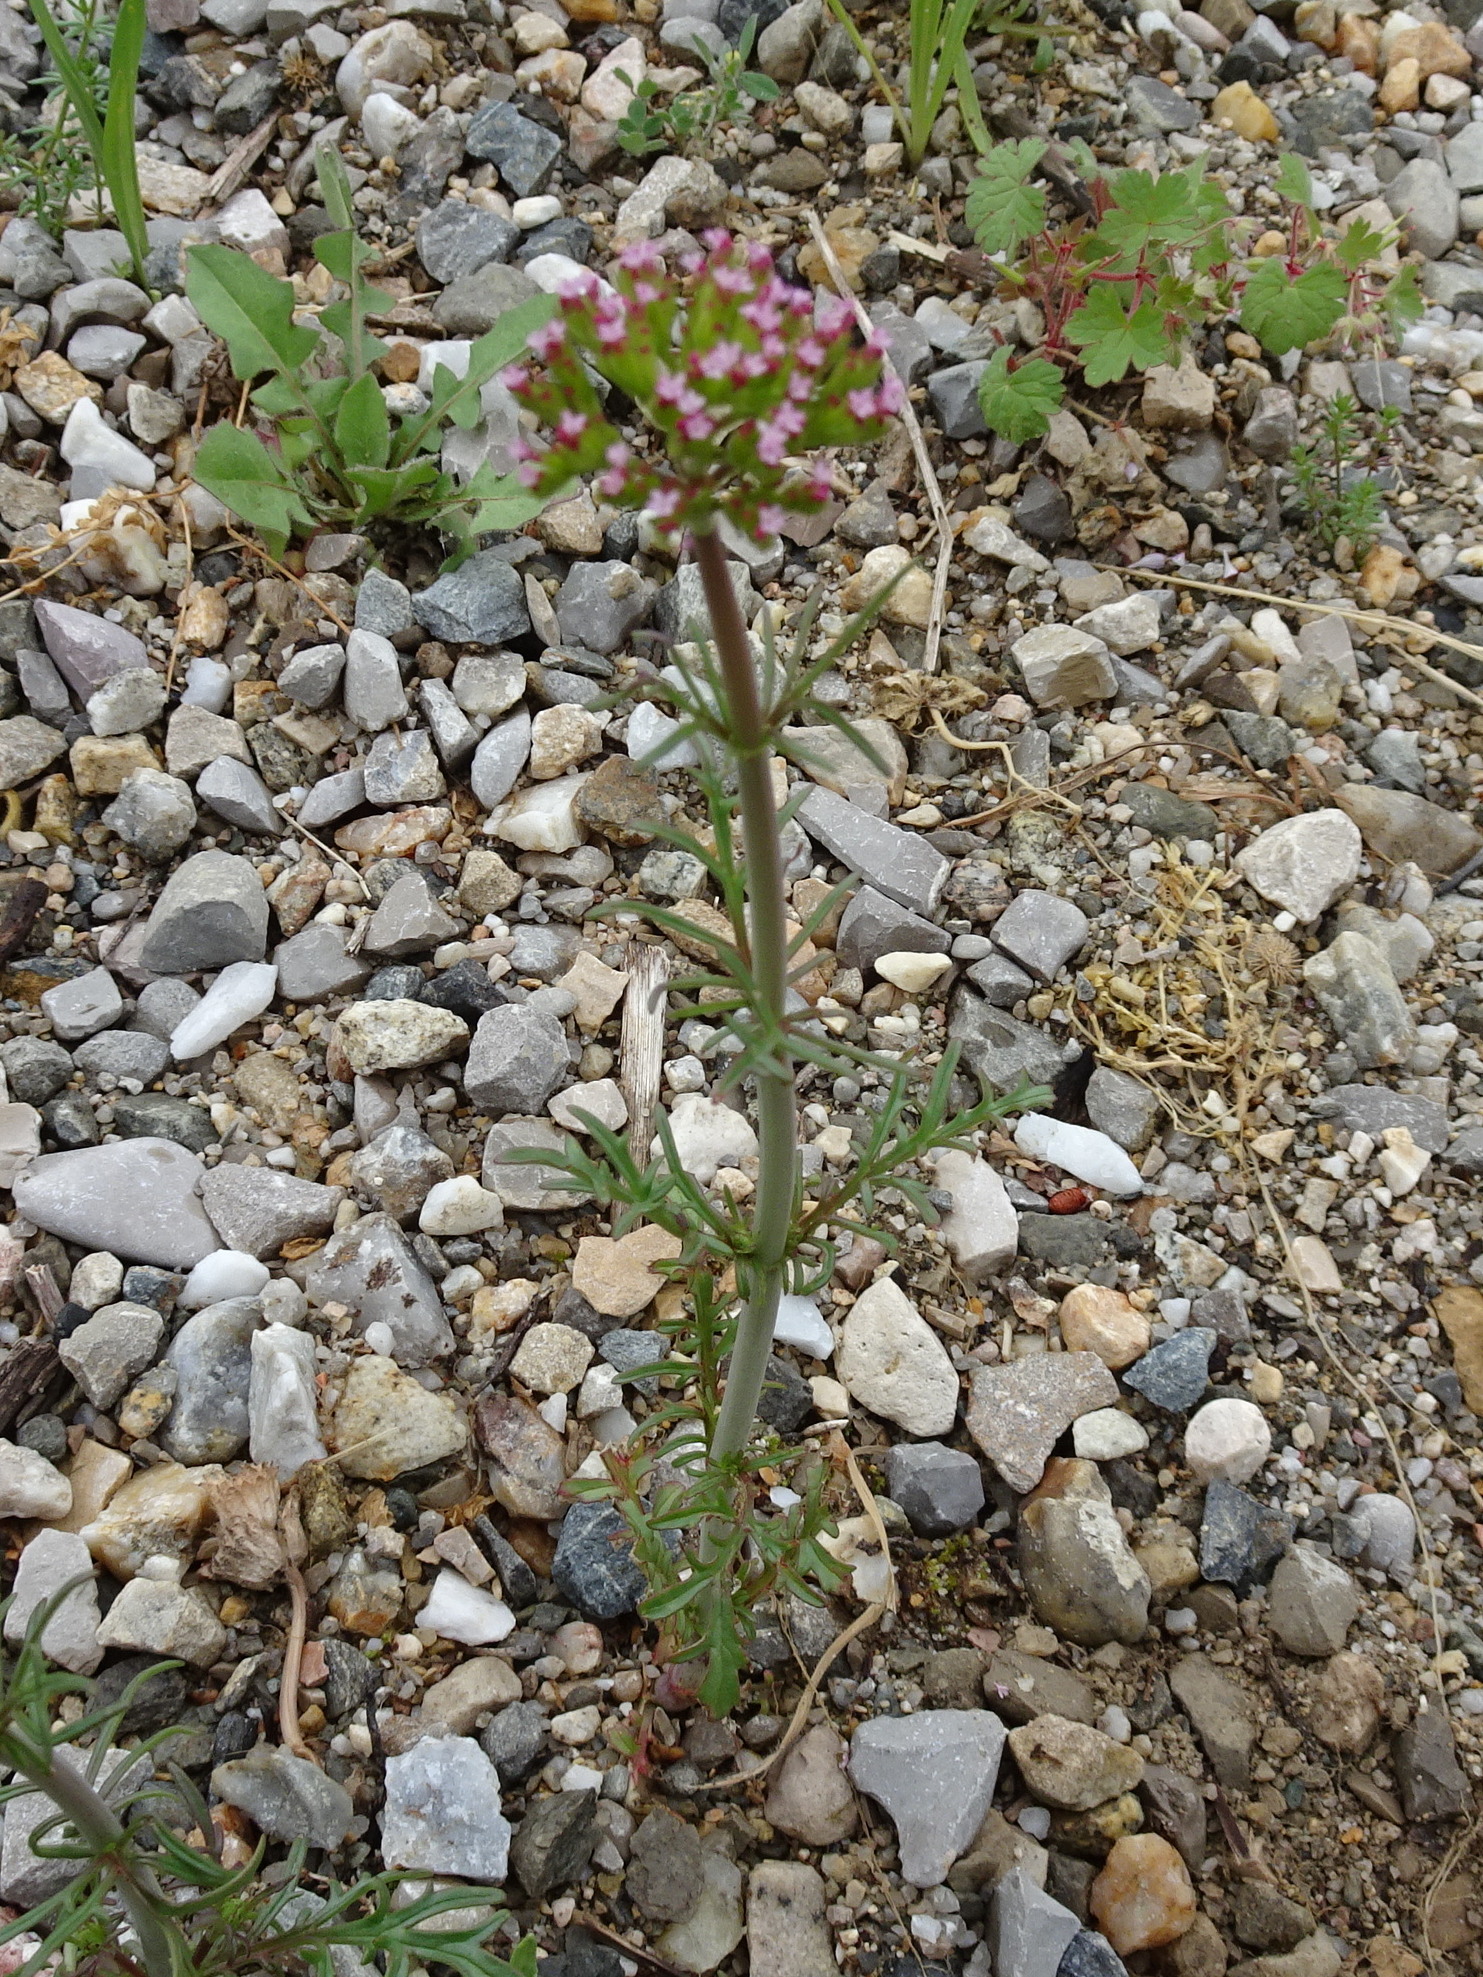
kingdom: Plantae
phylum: Tracheophyta
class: Magnoliopsida
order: Dipsacales
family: Caprifoliaceae
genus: Centranthus
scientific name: Centranthus calcitrapae
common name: Annual valerian
